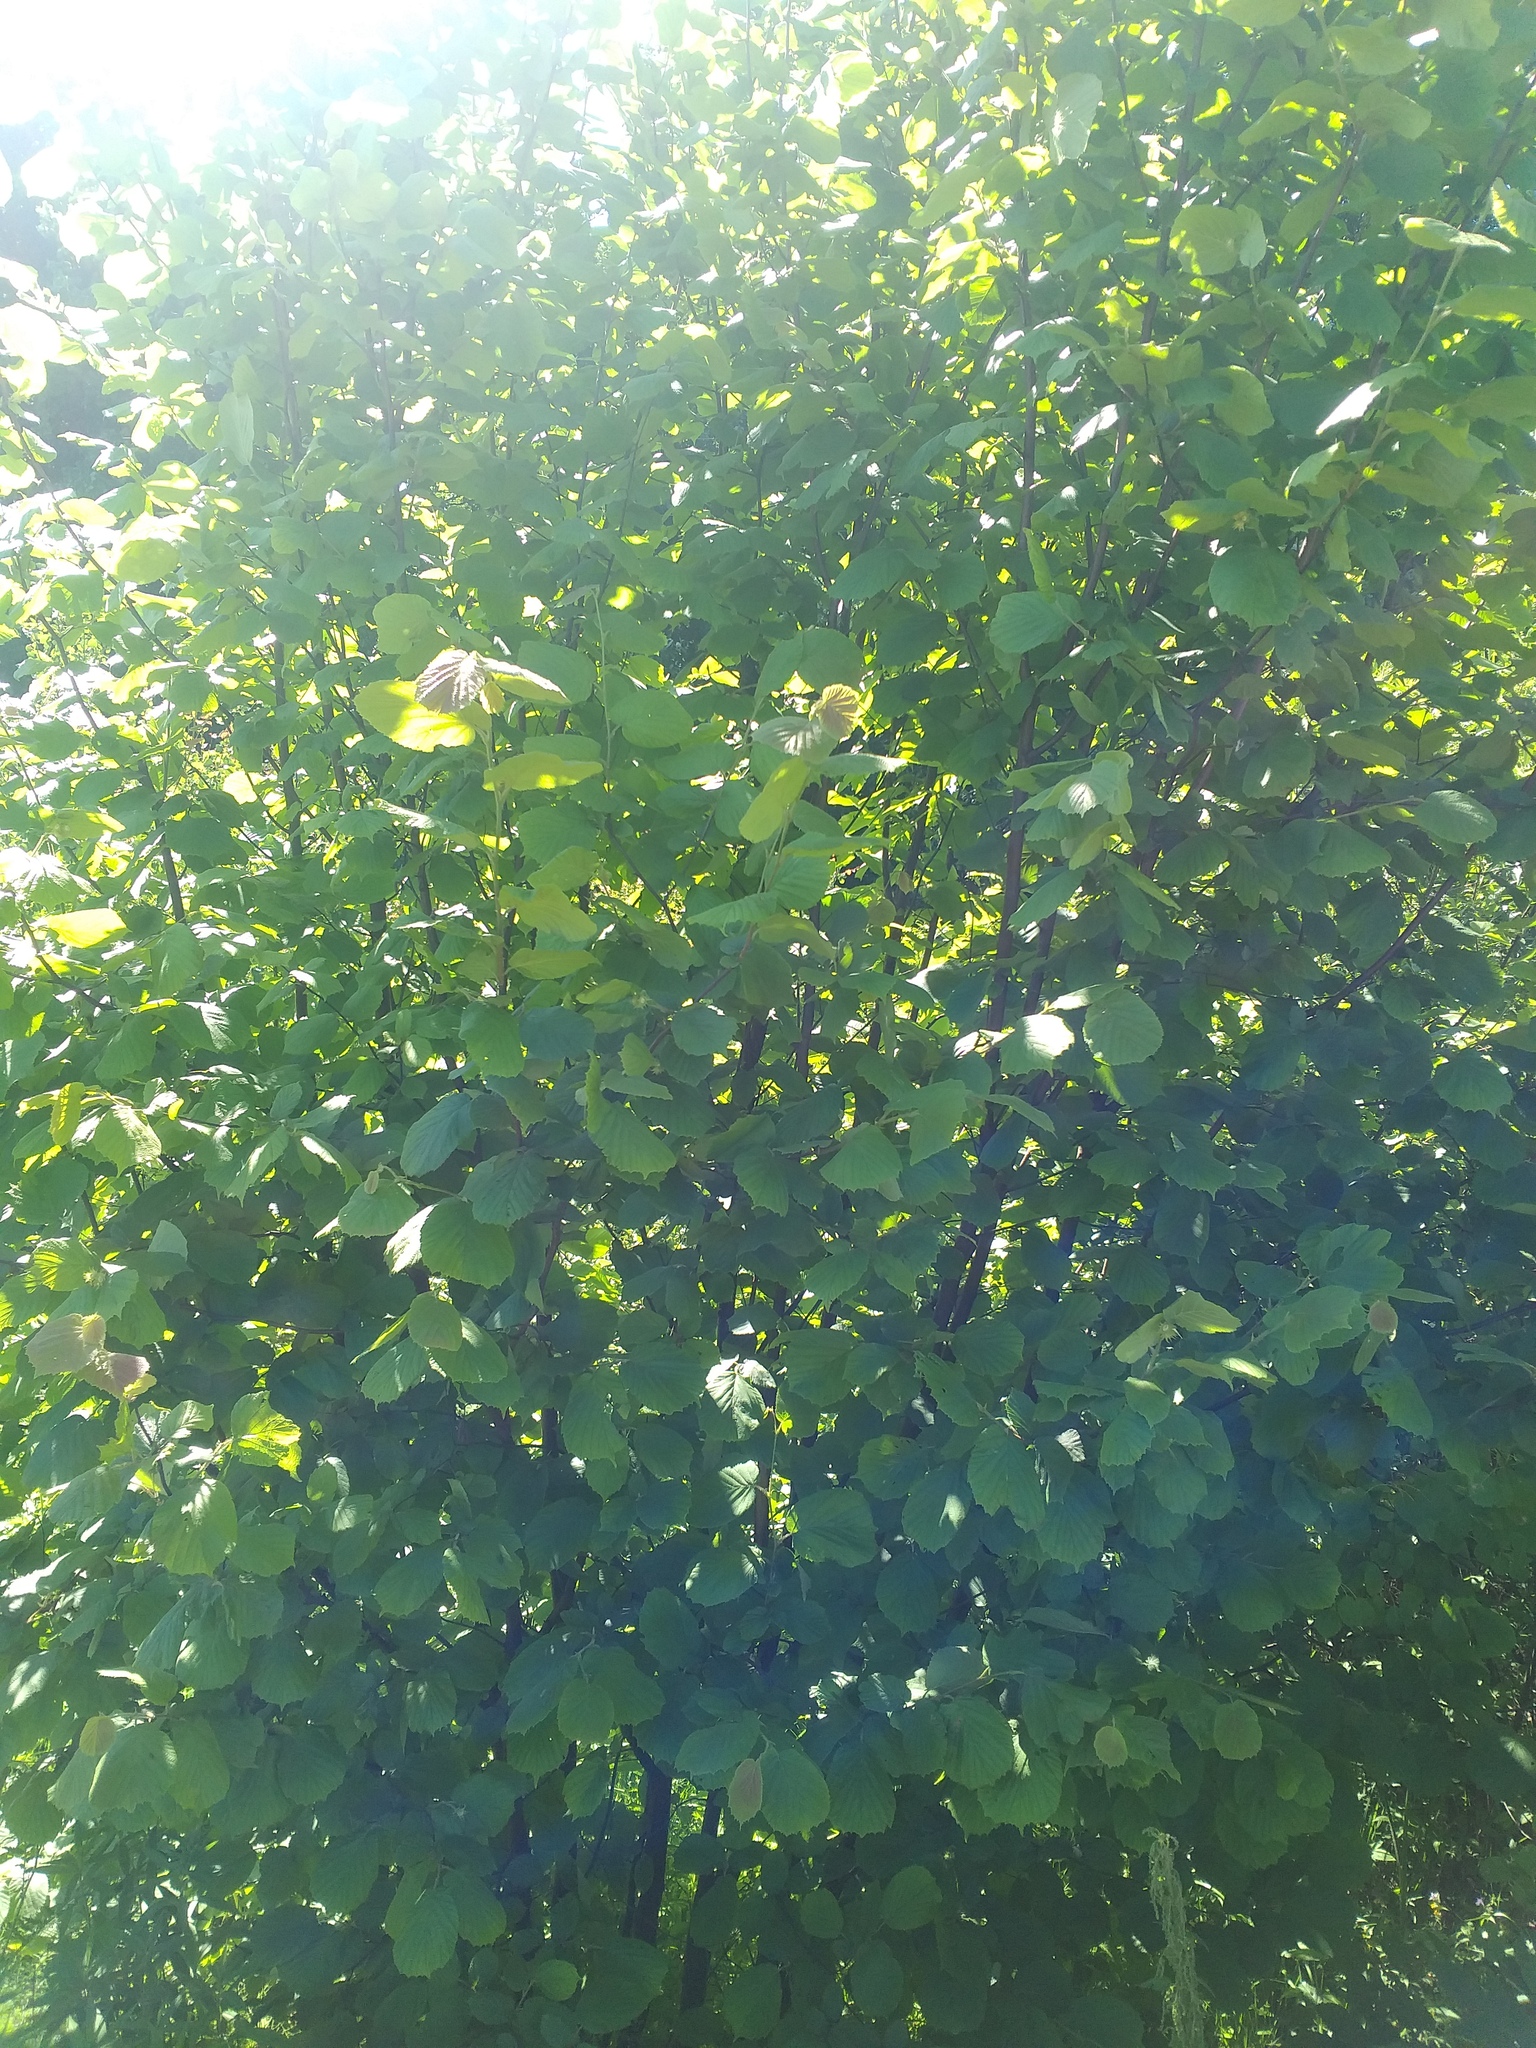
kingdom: Plantae
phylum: Tracheophyta
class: Magnoliopsida
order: Fagales
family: Betulaceae
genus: Corylus
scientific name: Corylus avellana
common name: European hazel
